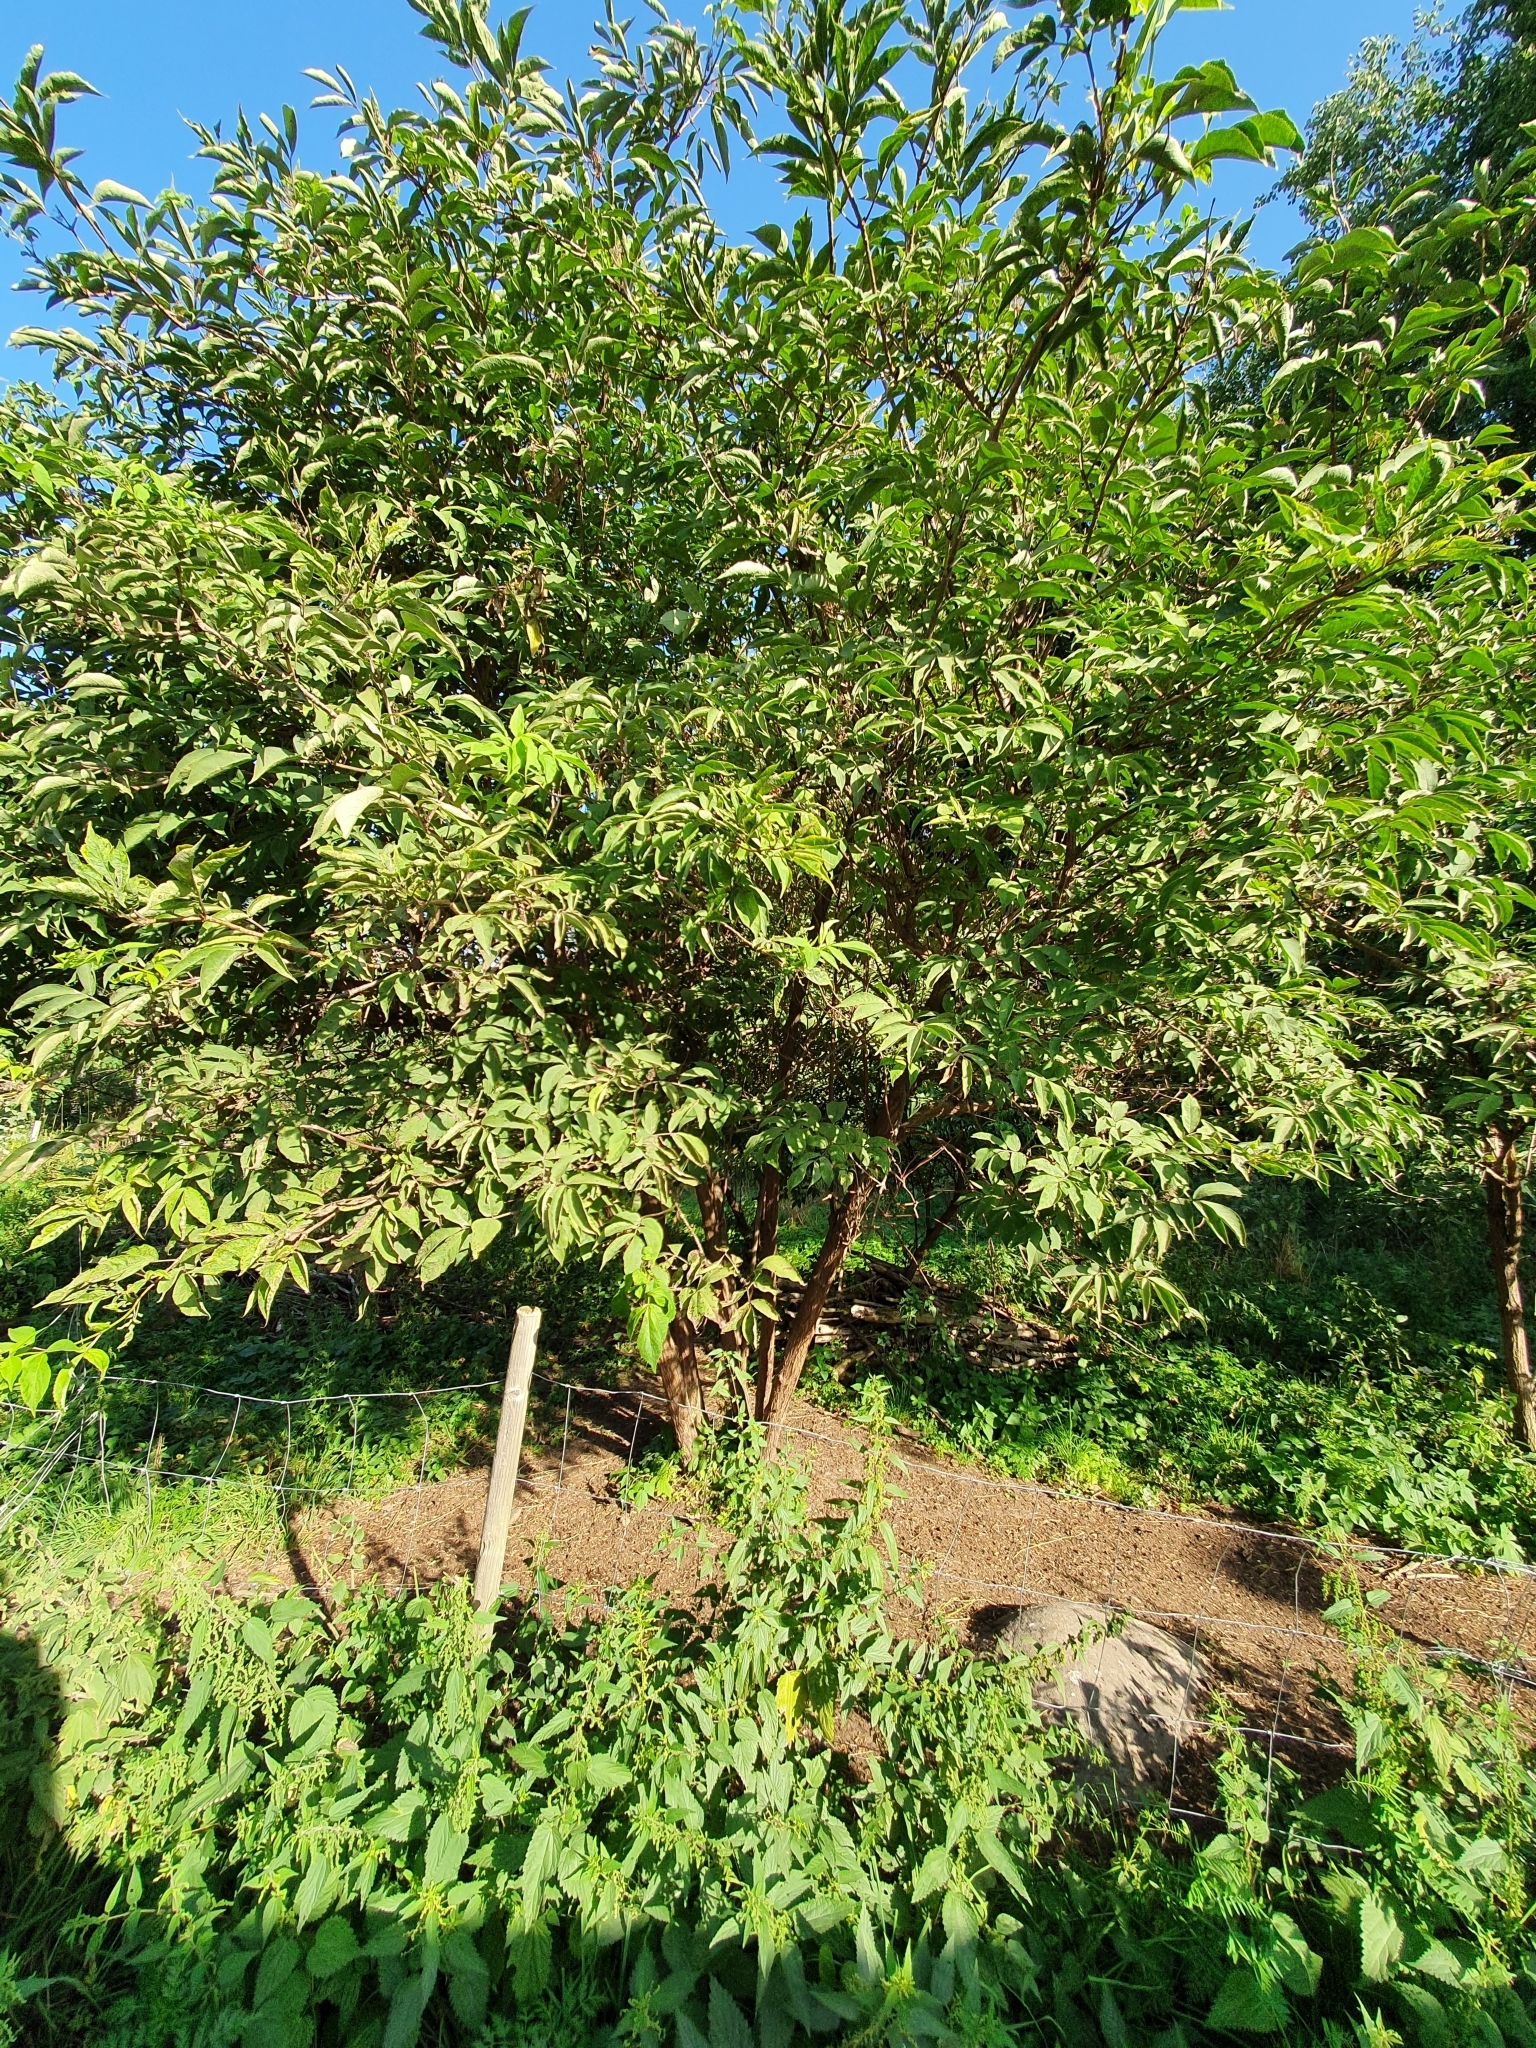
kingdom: Plantae
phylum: Tracheophyta
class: Magnoliopsida
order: Dipsacales
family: Viburnaceae
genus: Sambucus
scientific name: Sambucus racemosa
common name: Red-berried elder
